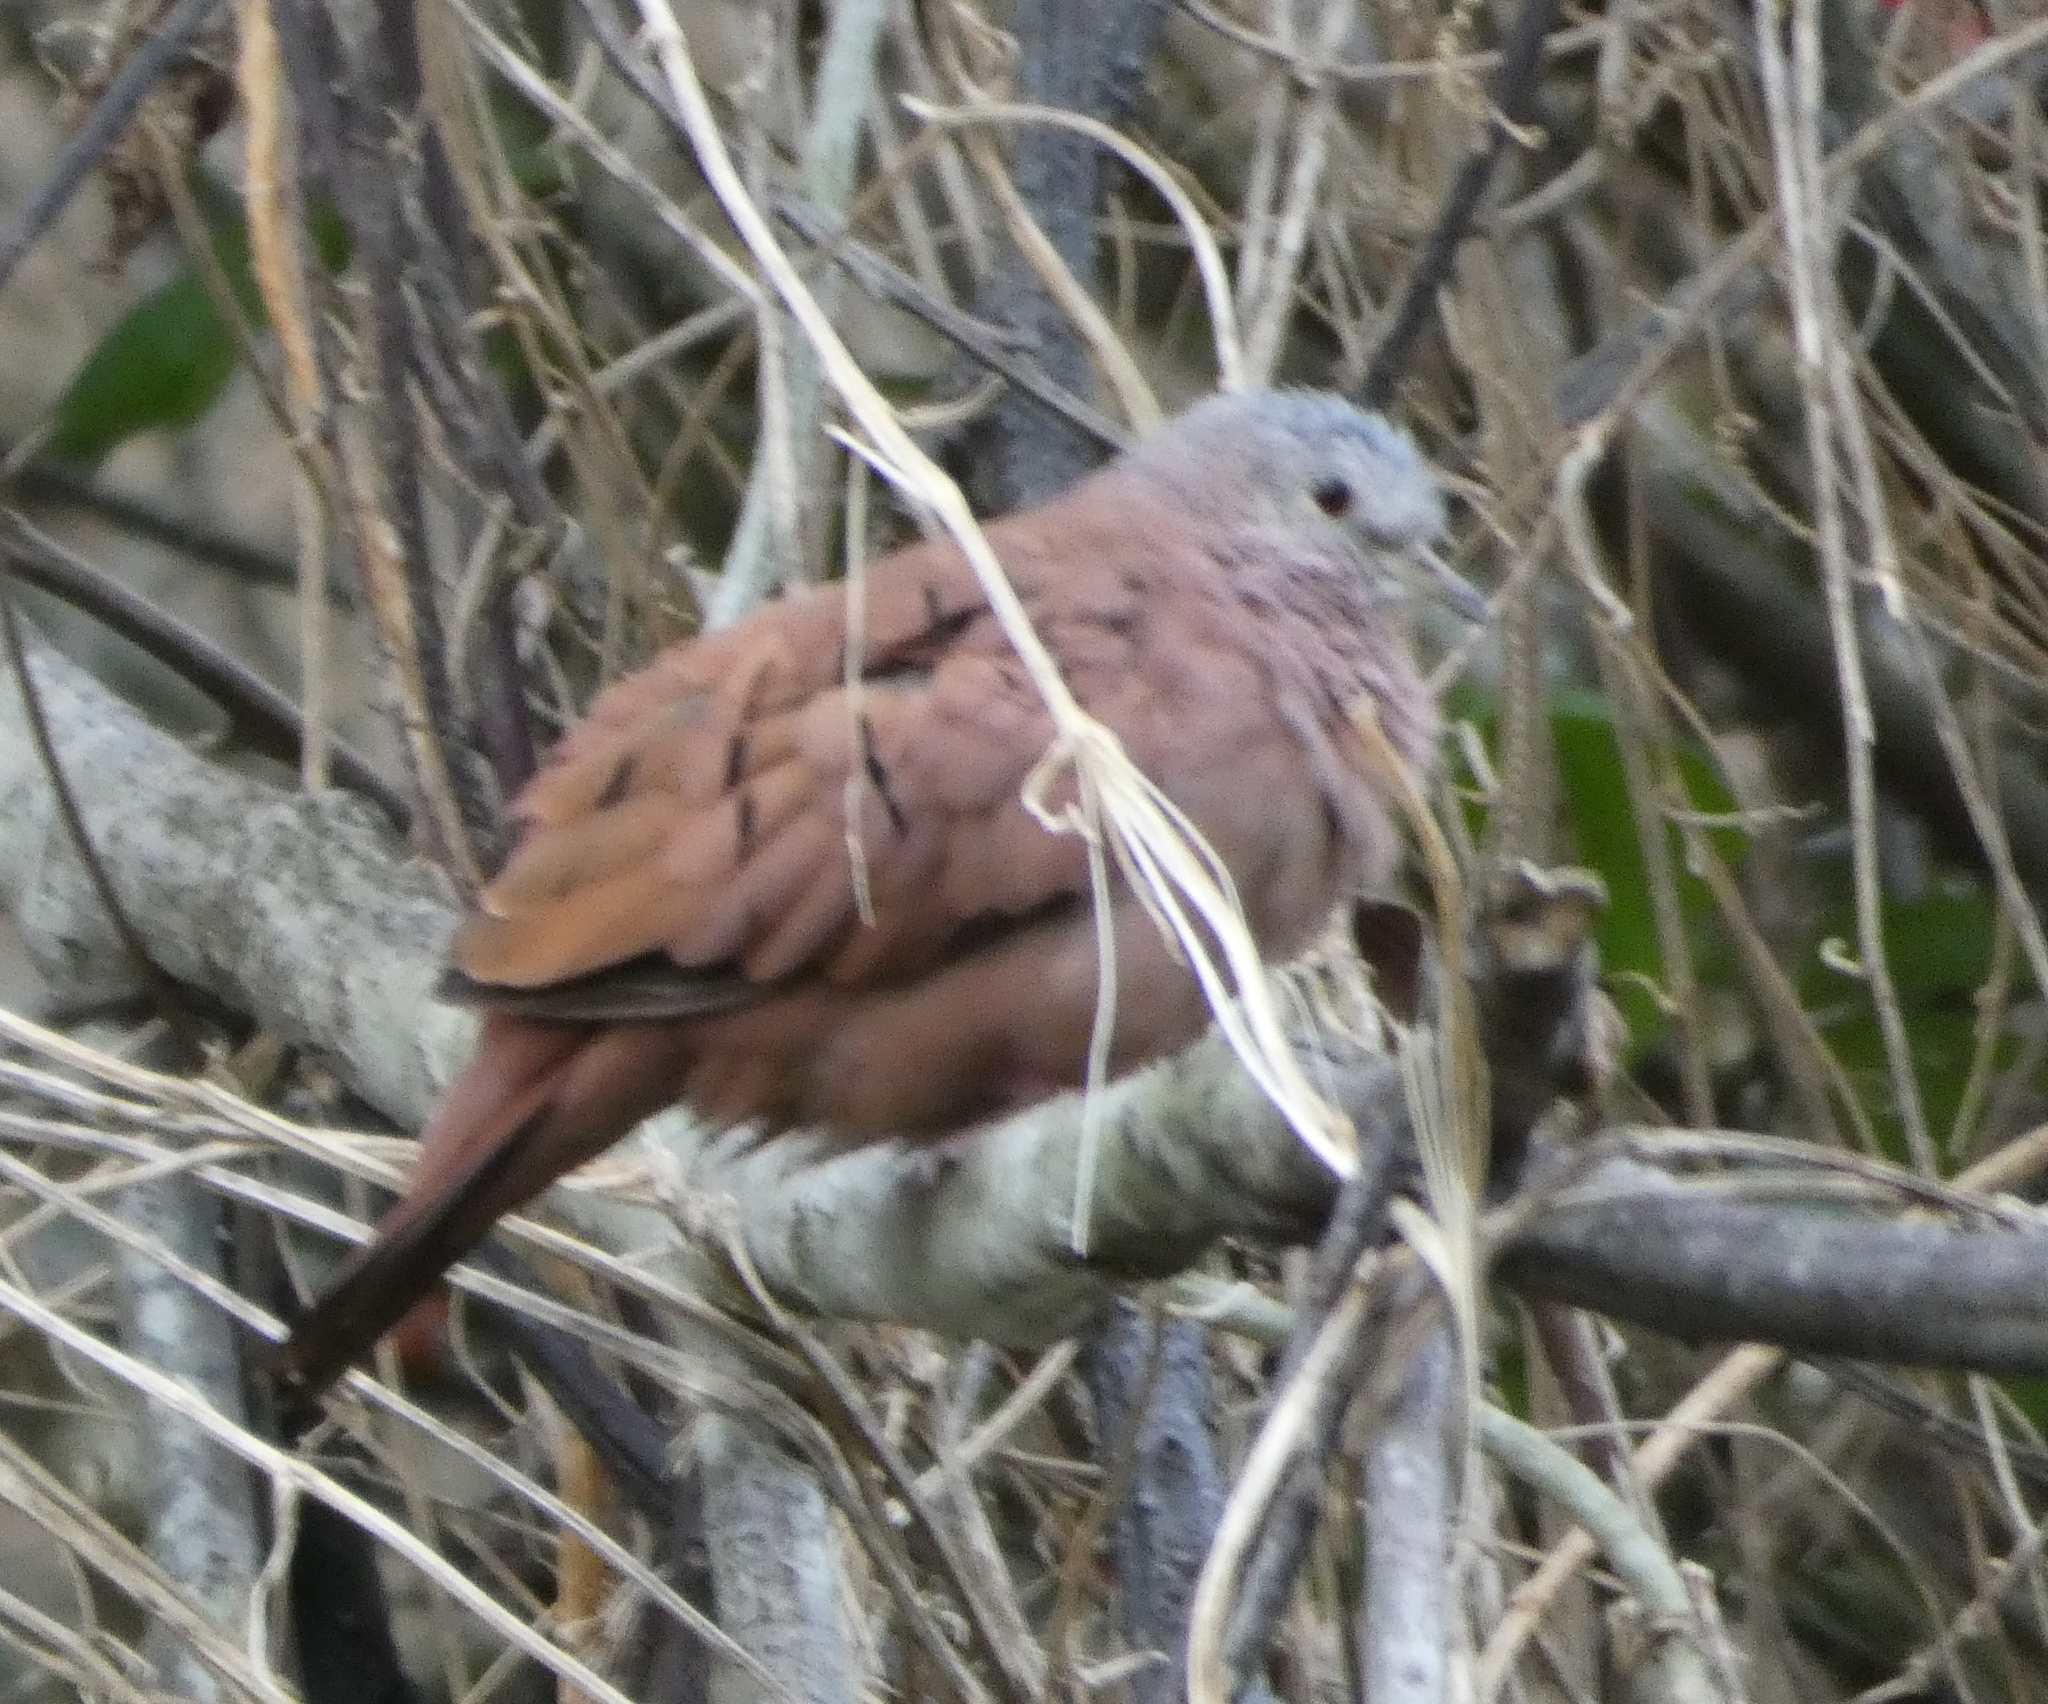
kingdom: Animalia
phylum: Chordata
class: Aves
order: Columbiformes
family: Columbidae
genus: Columbina
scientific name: Columbina talpacoti
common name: Ruddy ground dove
